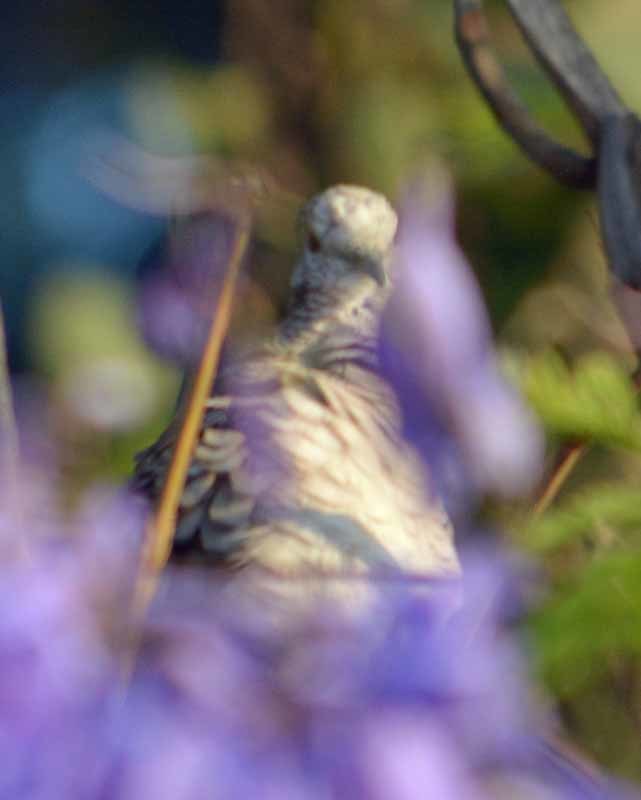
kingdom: Animalia
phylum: Chordata
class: Aves
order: Columbiformes
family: Columbidae
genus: Columbina
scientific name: Columbina inca
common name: Inca dove
